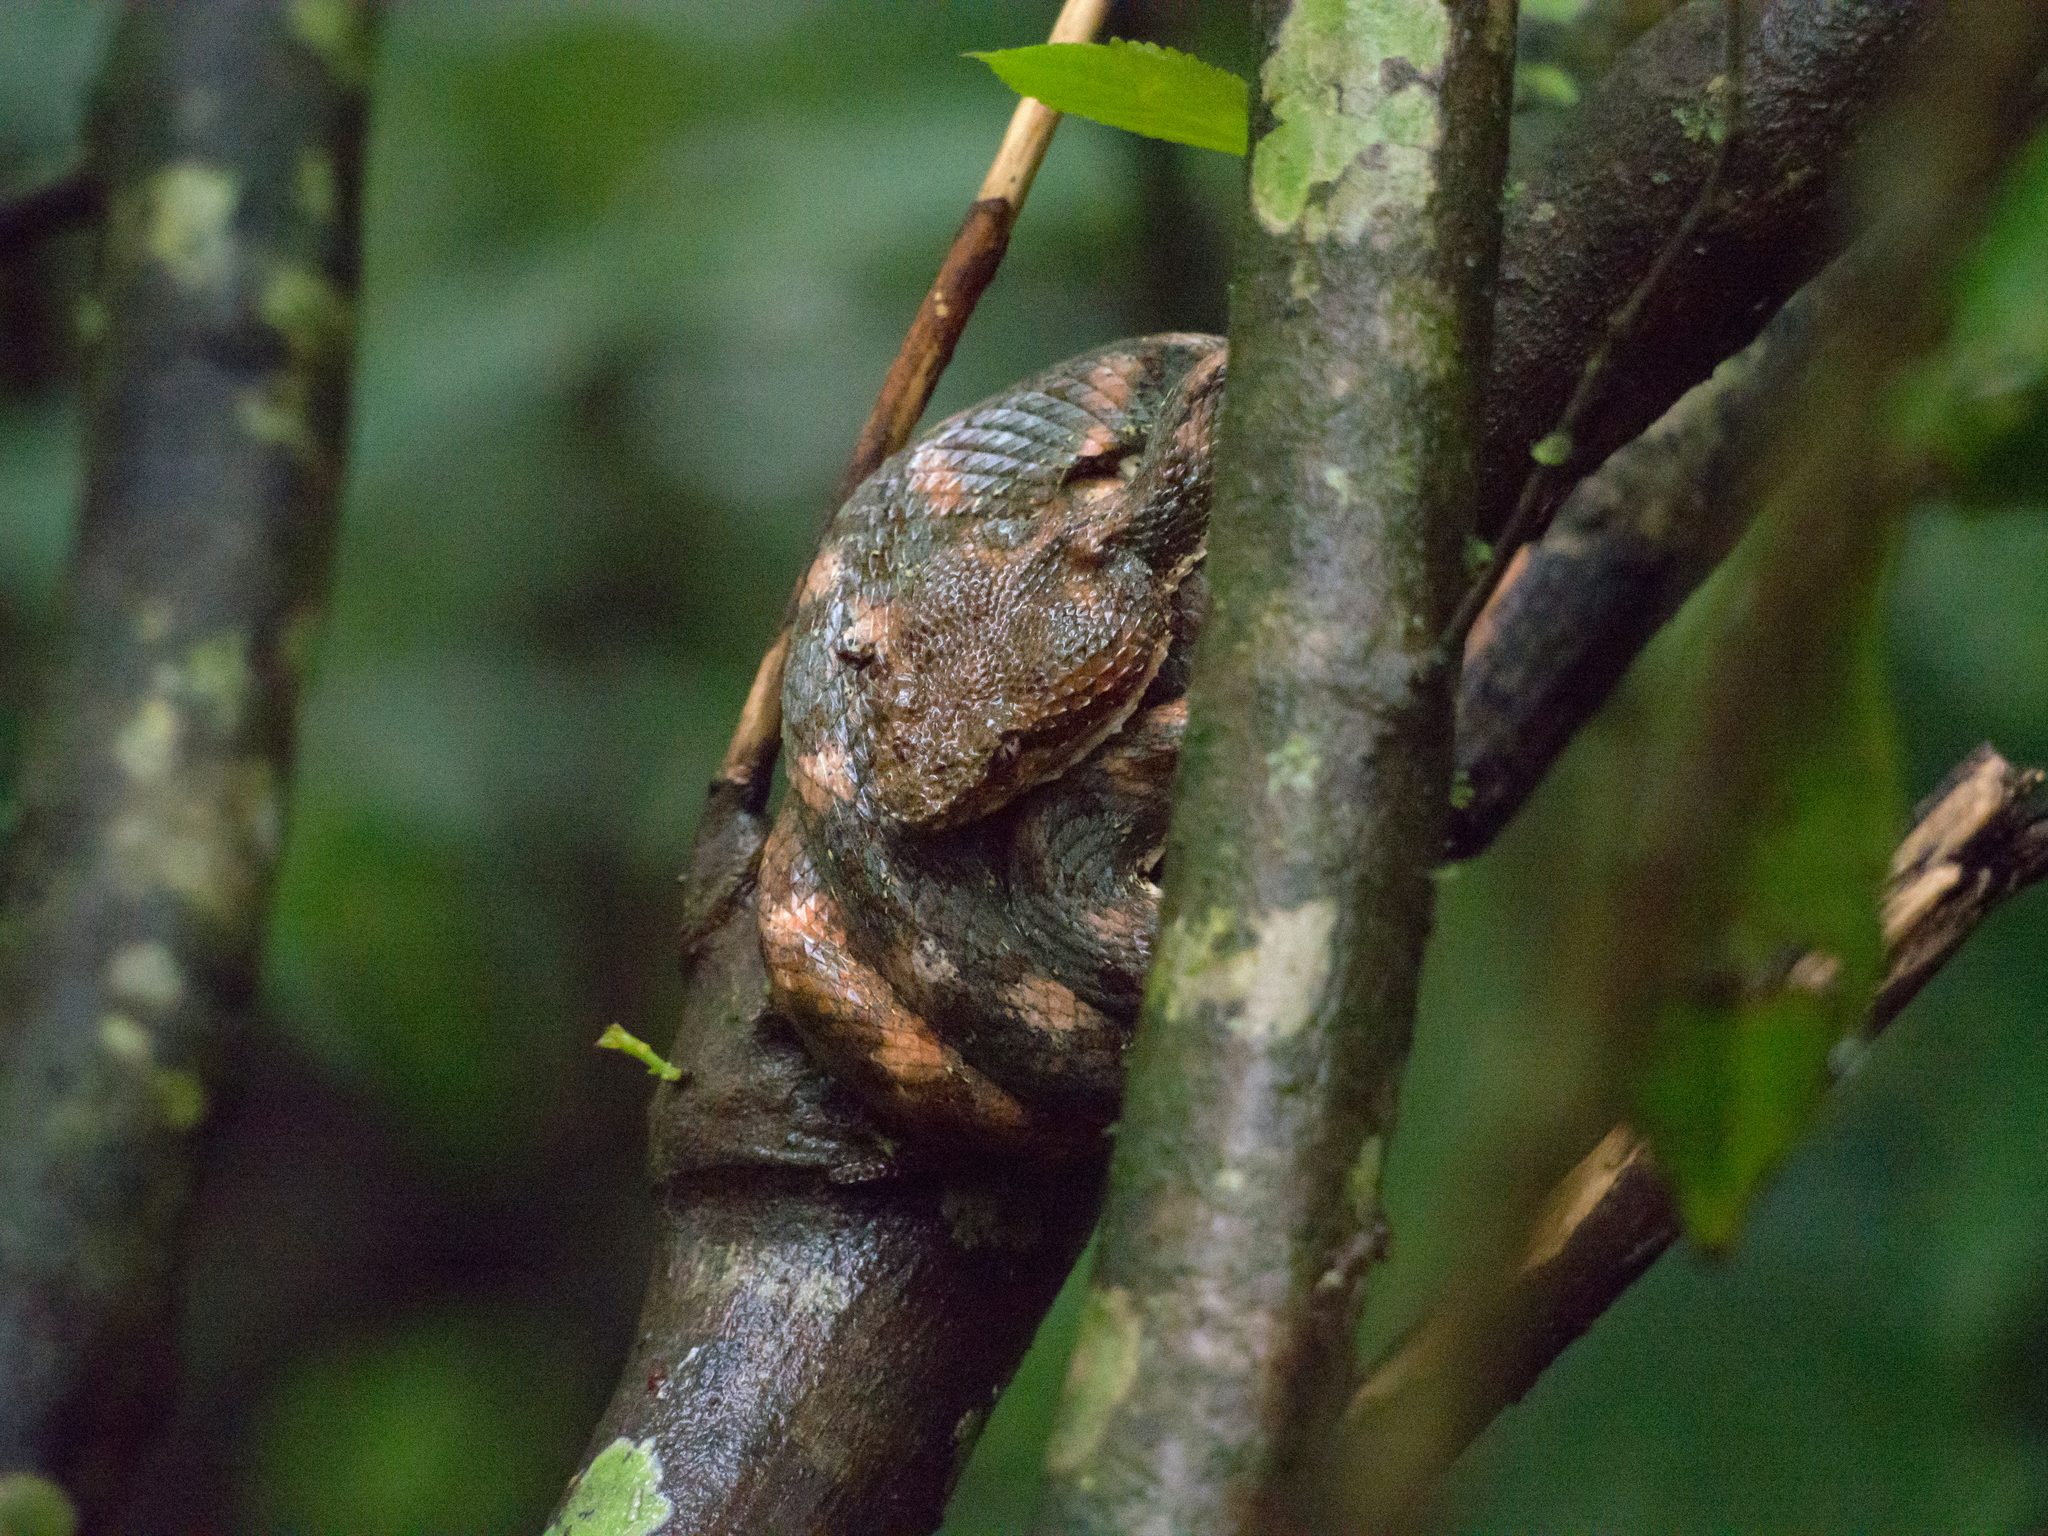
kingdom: Animalia
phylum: Chordata
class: Squamata
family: Viperidae
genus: Bothriechis
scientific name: Bothriechis schlegelii
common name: Eyelash viper
